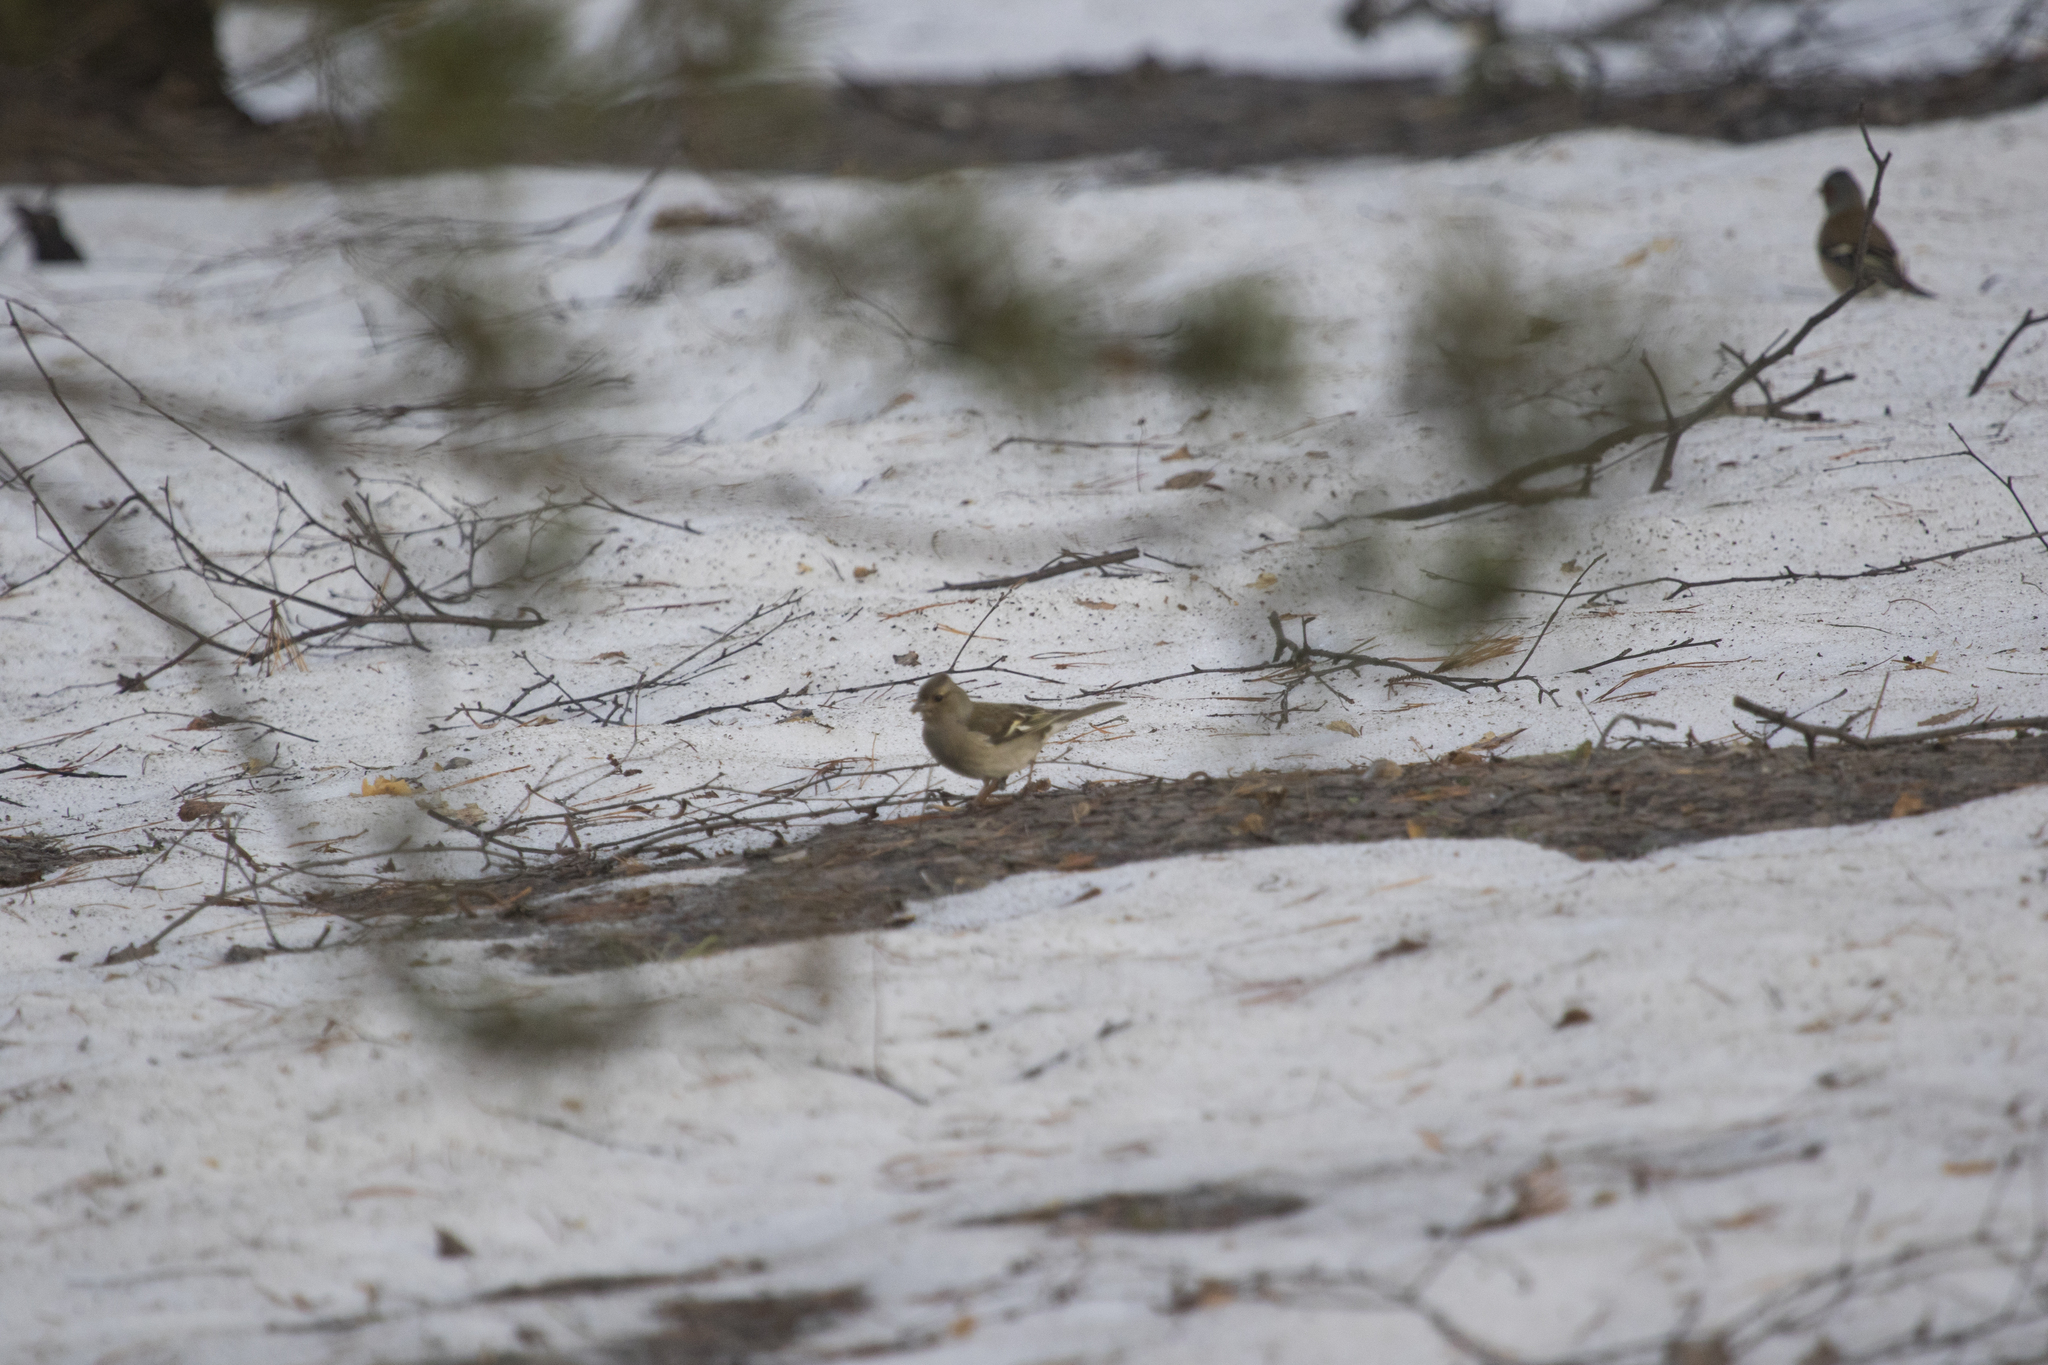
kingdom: Animalia
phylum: Chordata
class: Aves
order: Passeriformes
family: Fringillidae
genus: Fringilla
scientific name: Fringilla coelebs
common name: Common chaffinch
